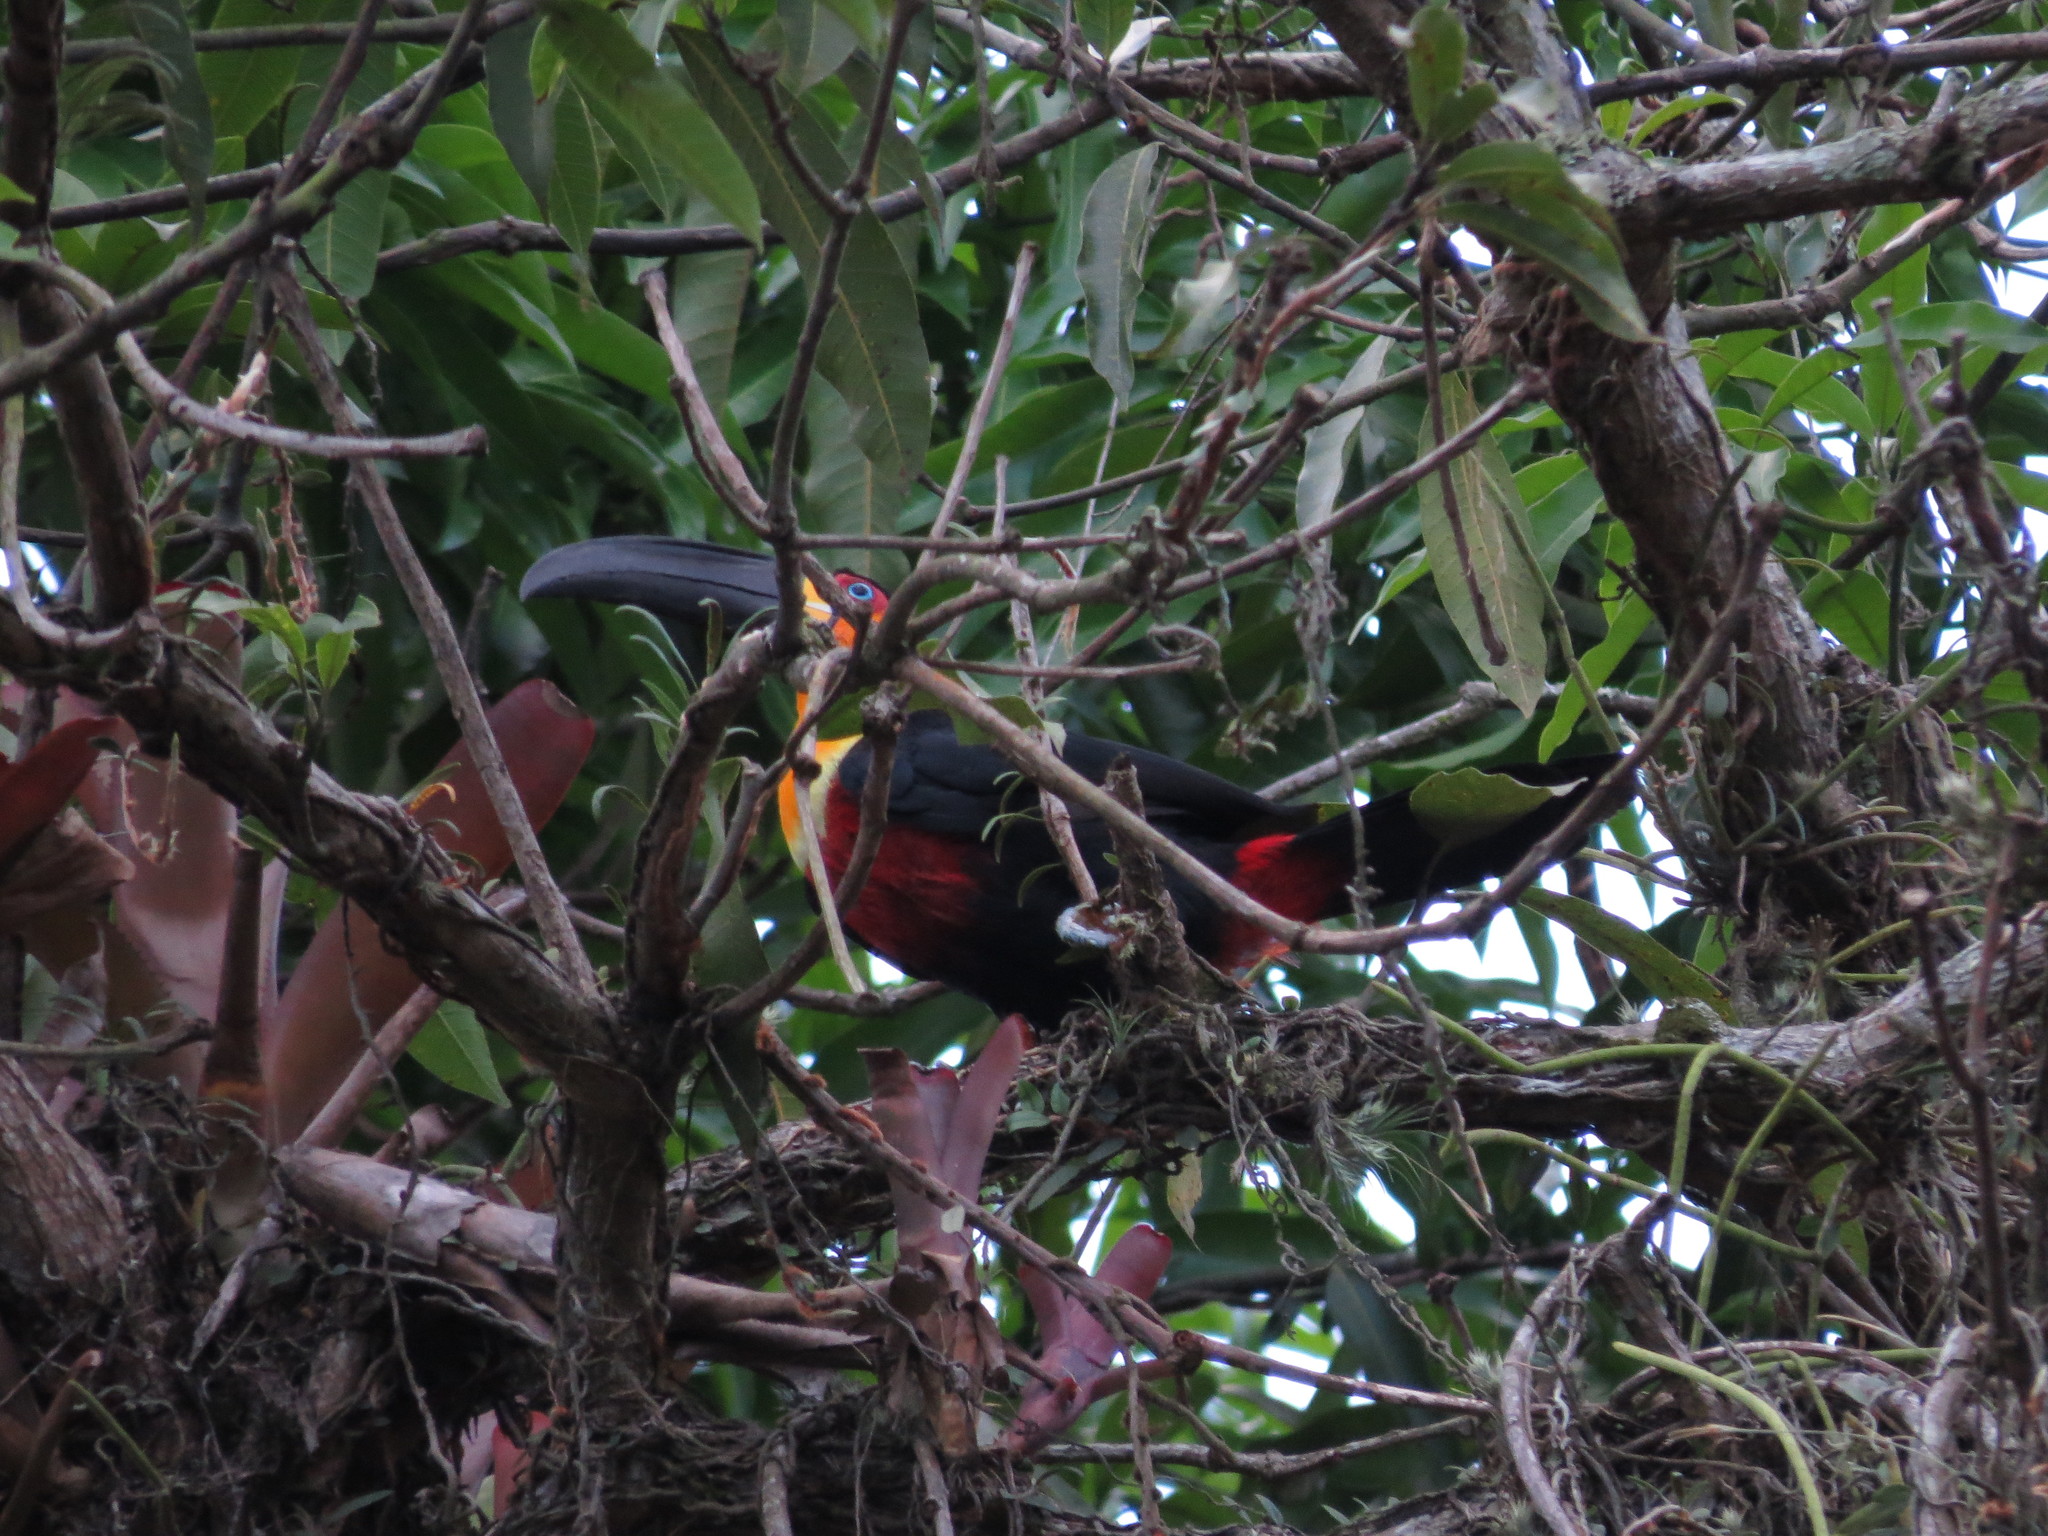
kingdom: Animalia
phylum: Chordata
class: Aves
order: Piciformes
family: Ramphastidae
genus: Ramphastos
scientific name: Ramphastos vitellinus
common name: Channel-billed toucan
